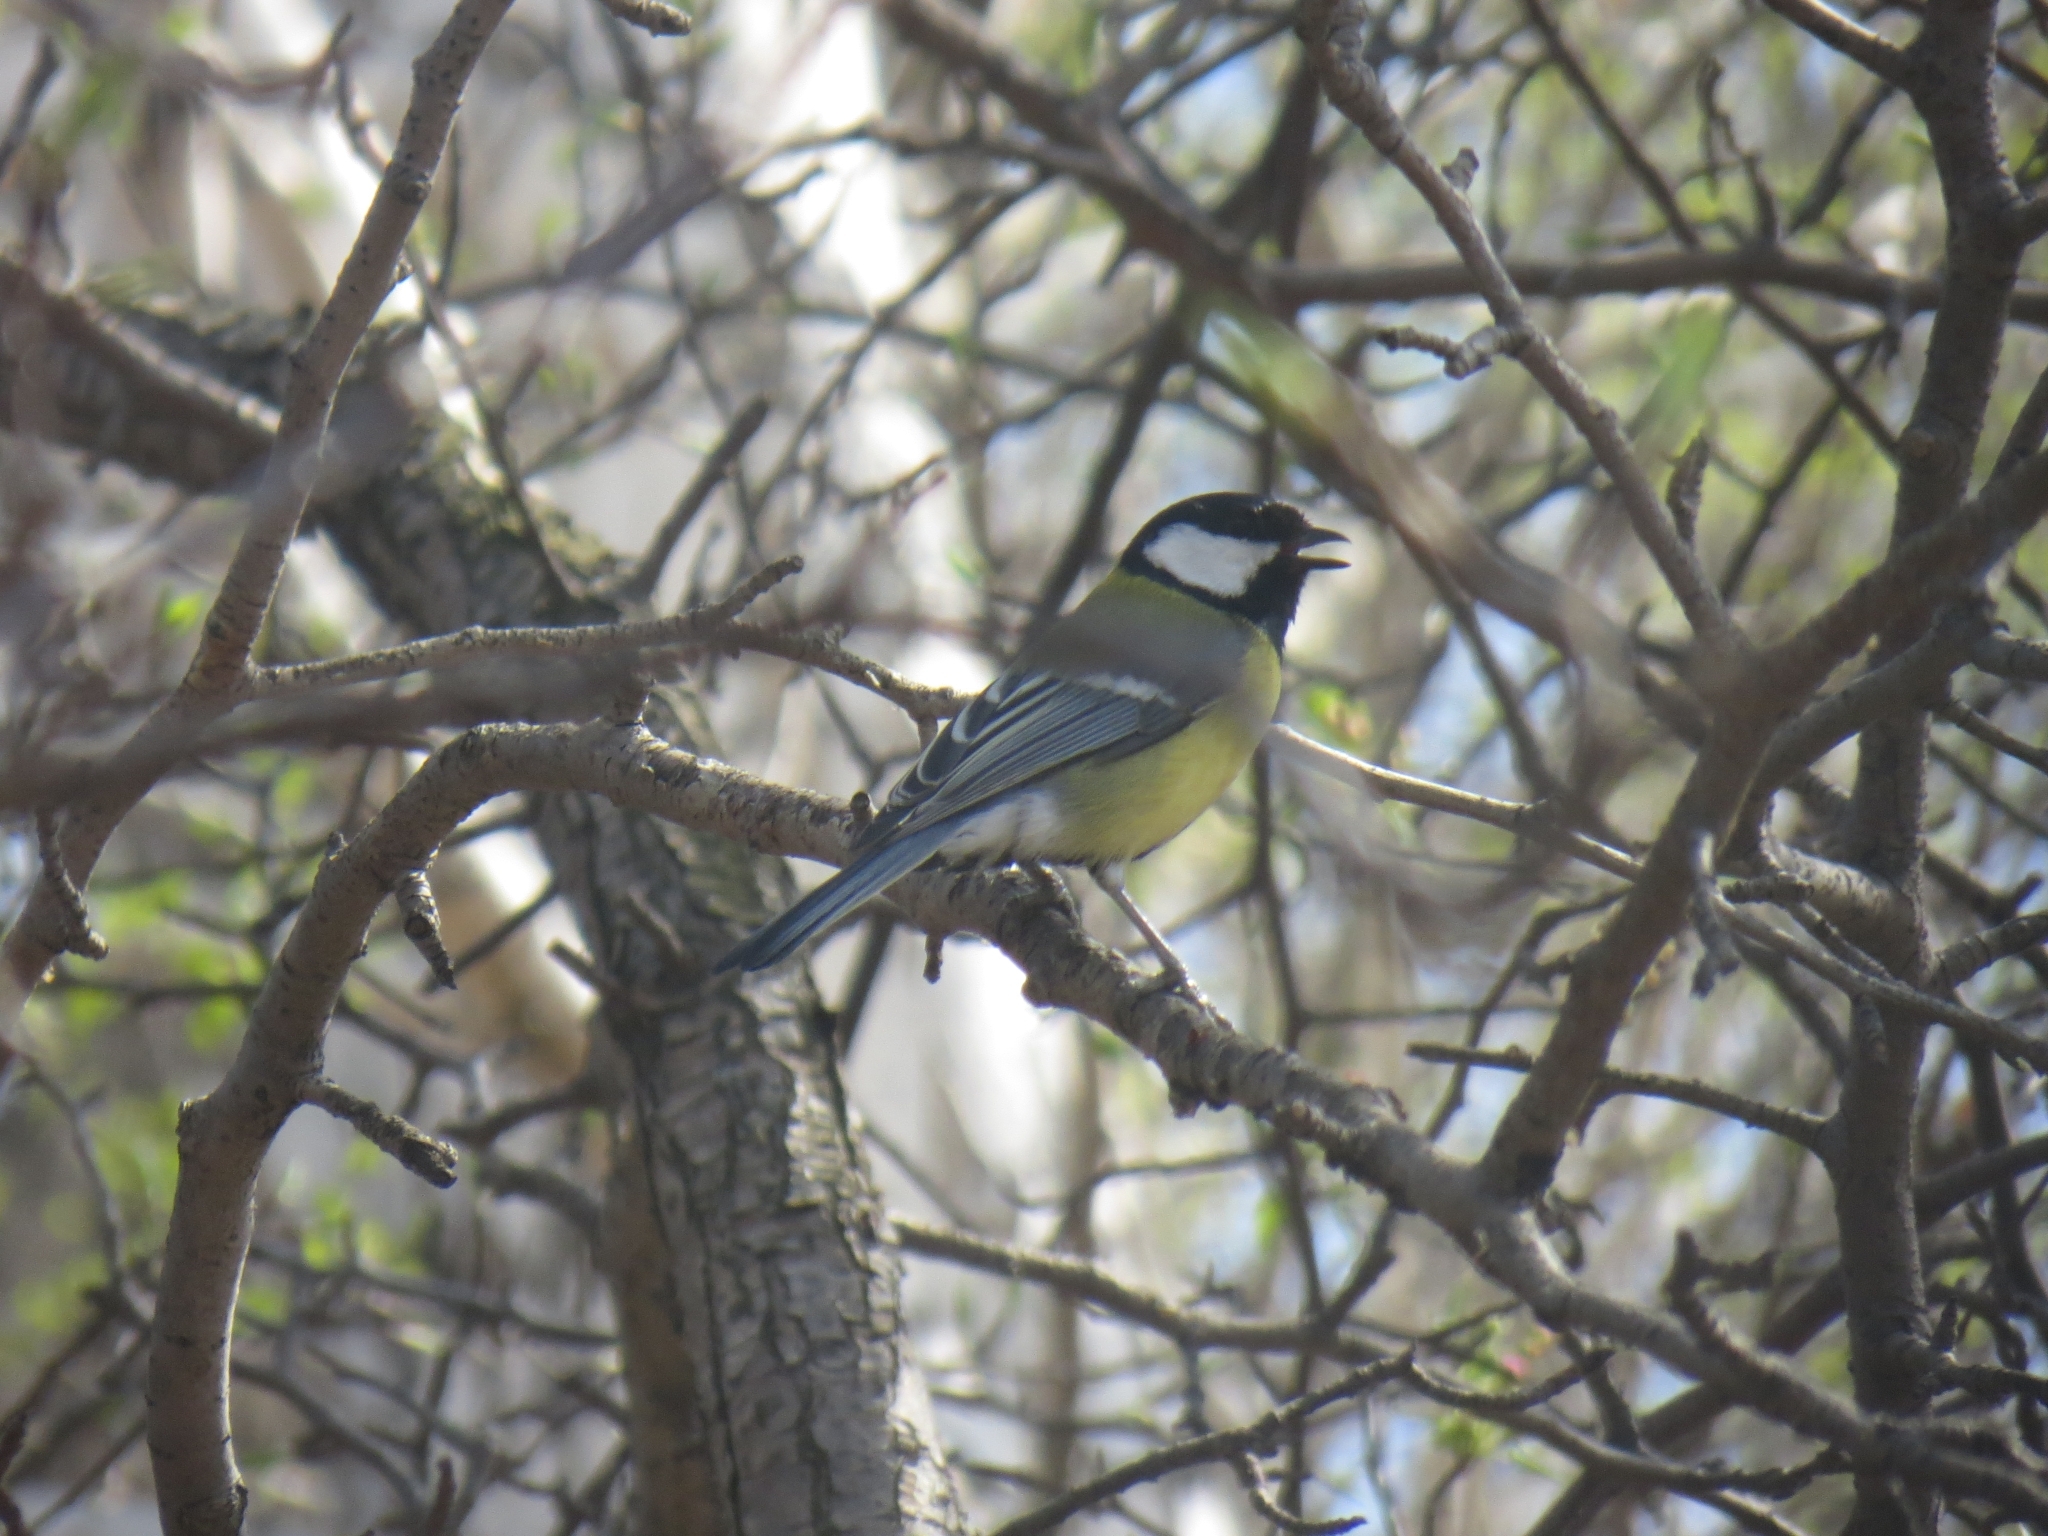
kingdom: Animalia
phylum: Chordata
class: Aves
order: Passeriformes
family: Paridae
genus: Parus
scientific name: Parus major
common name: Great tit
